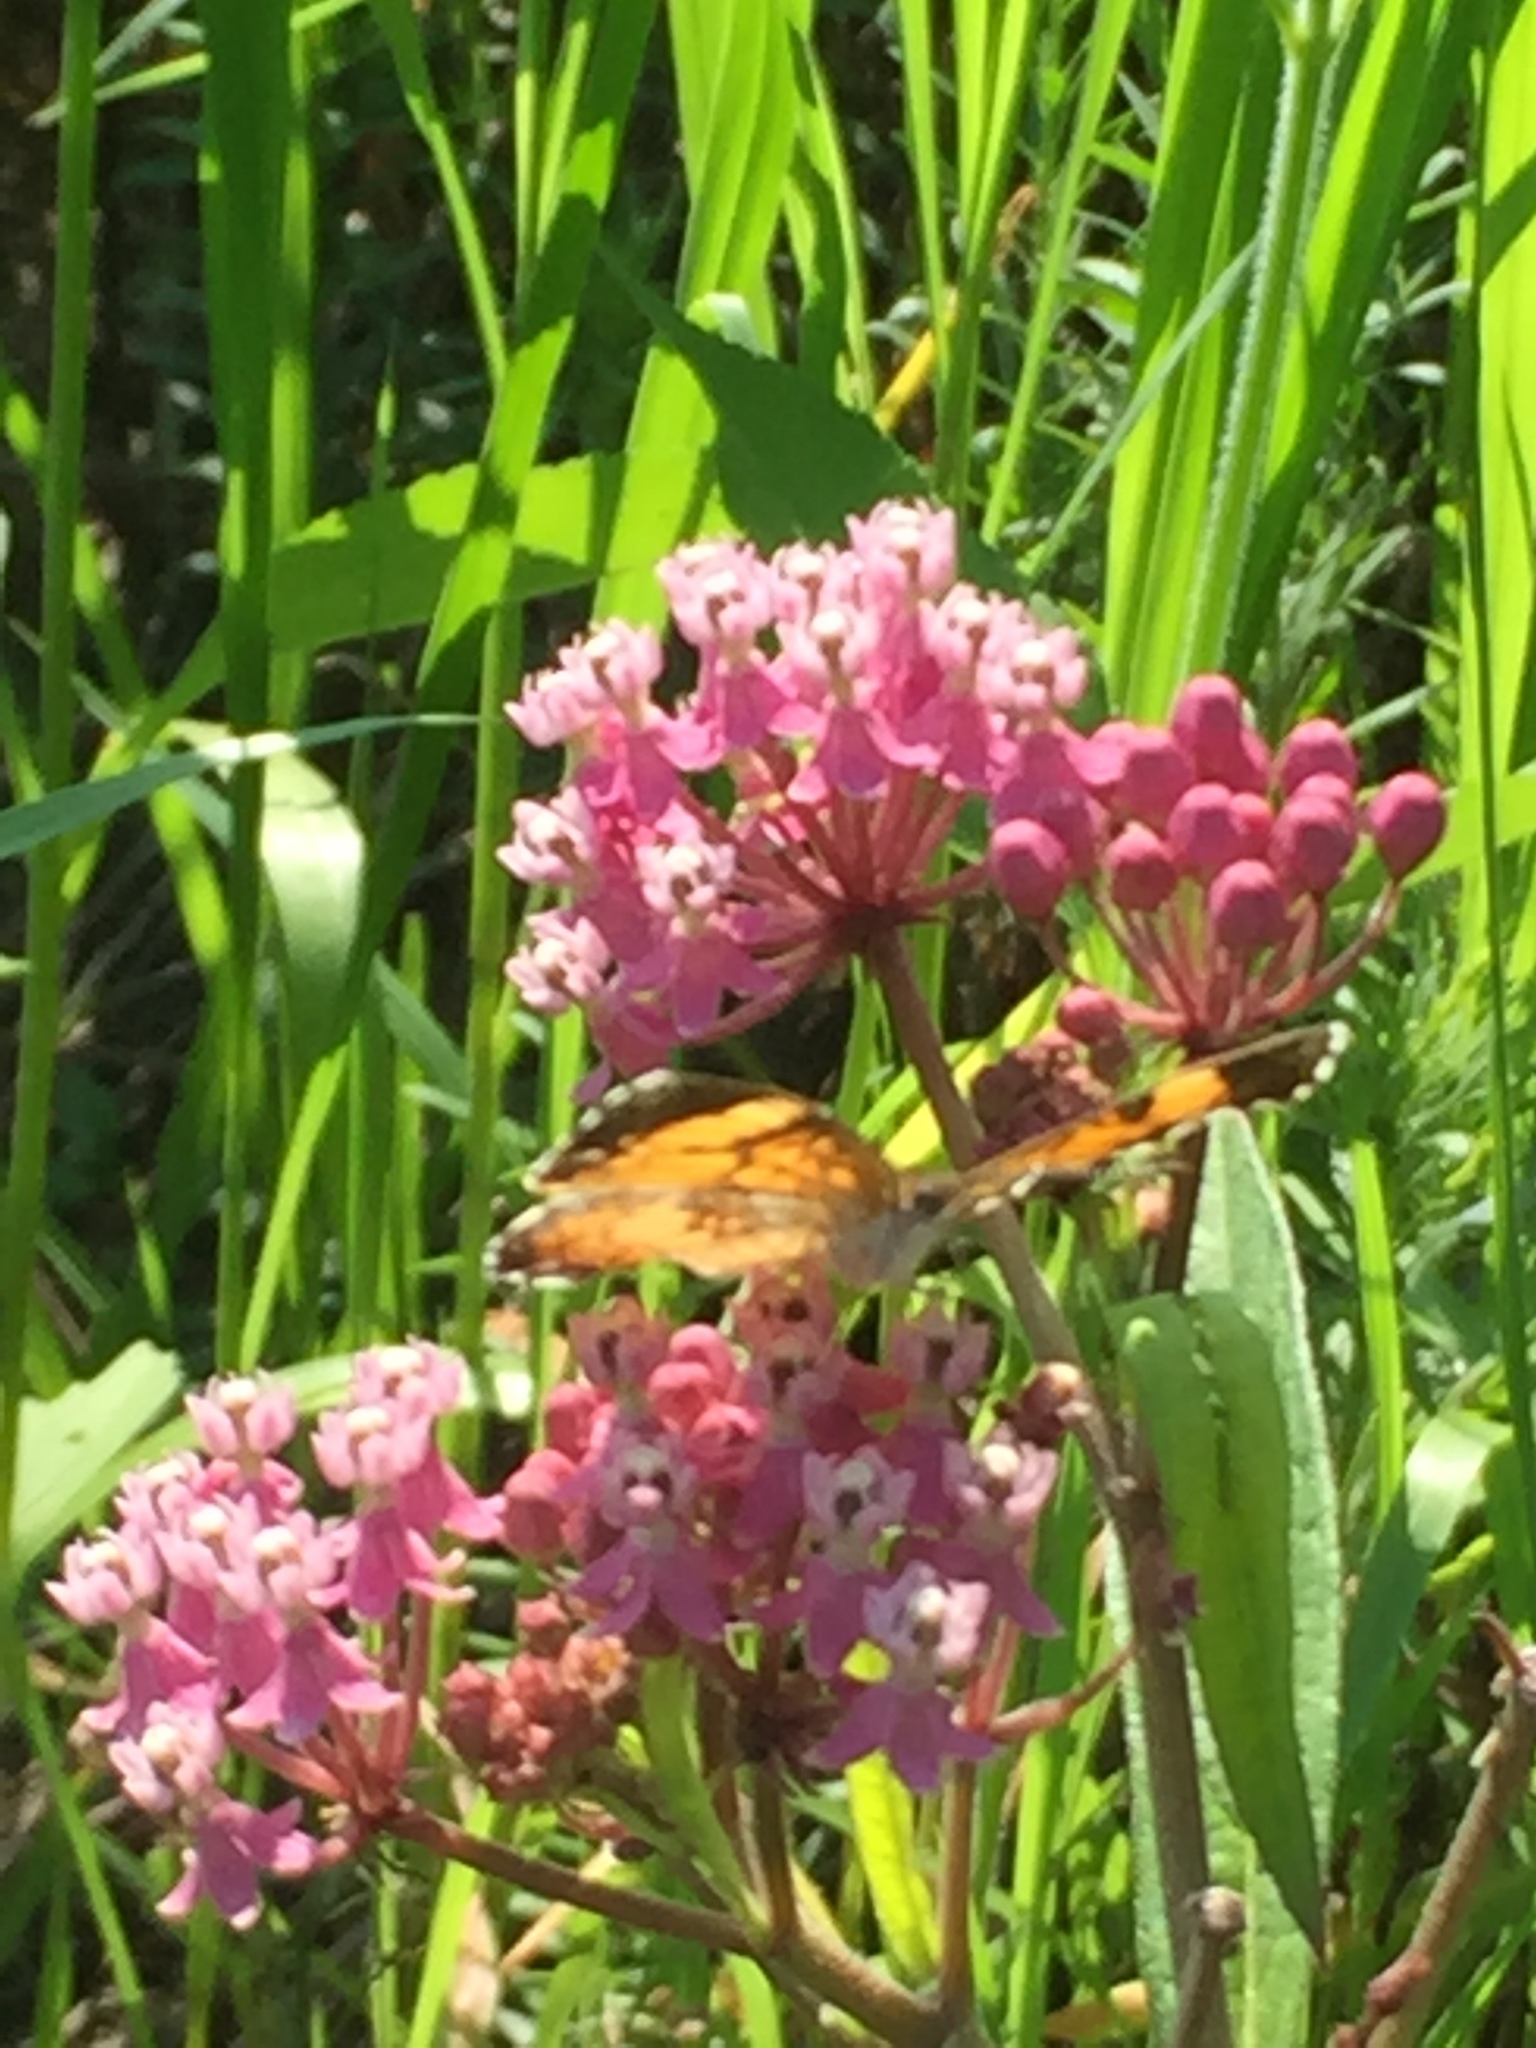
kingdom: Animalia
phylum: Arthropoda
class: Insecta
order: Lepidoptera
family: Nymphalidae
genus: Phyciodes
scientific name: Phyciodes tharos
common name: Pearl crescent
